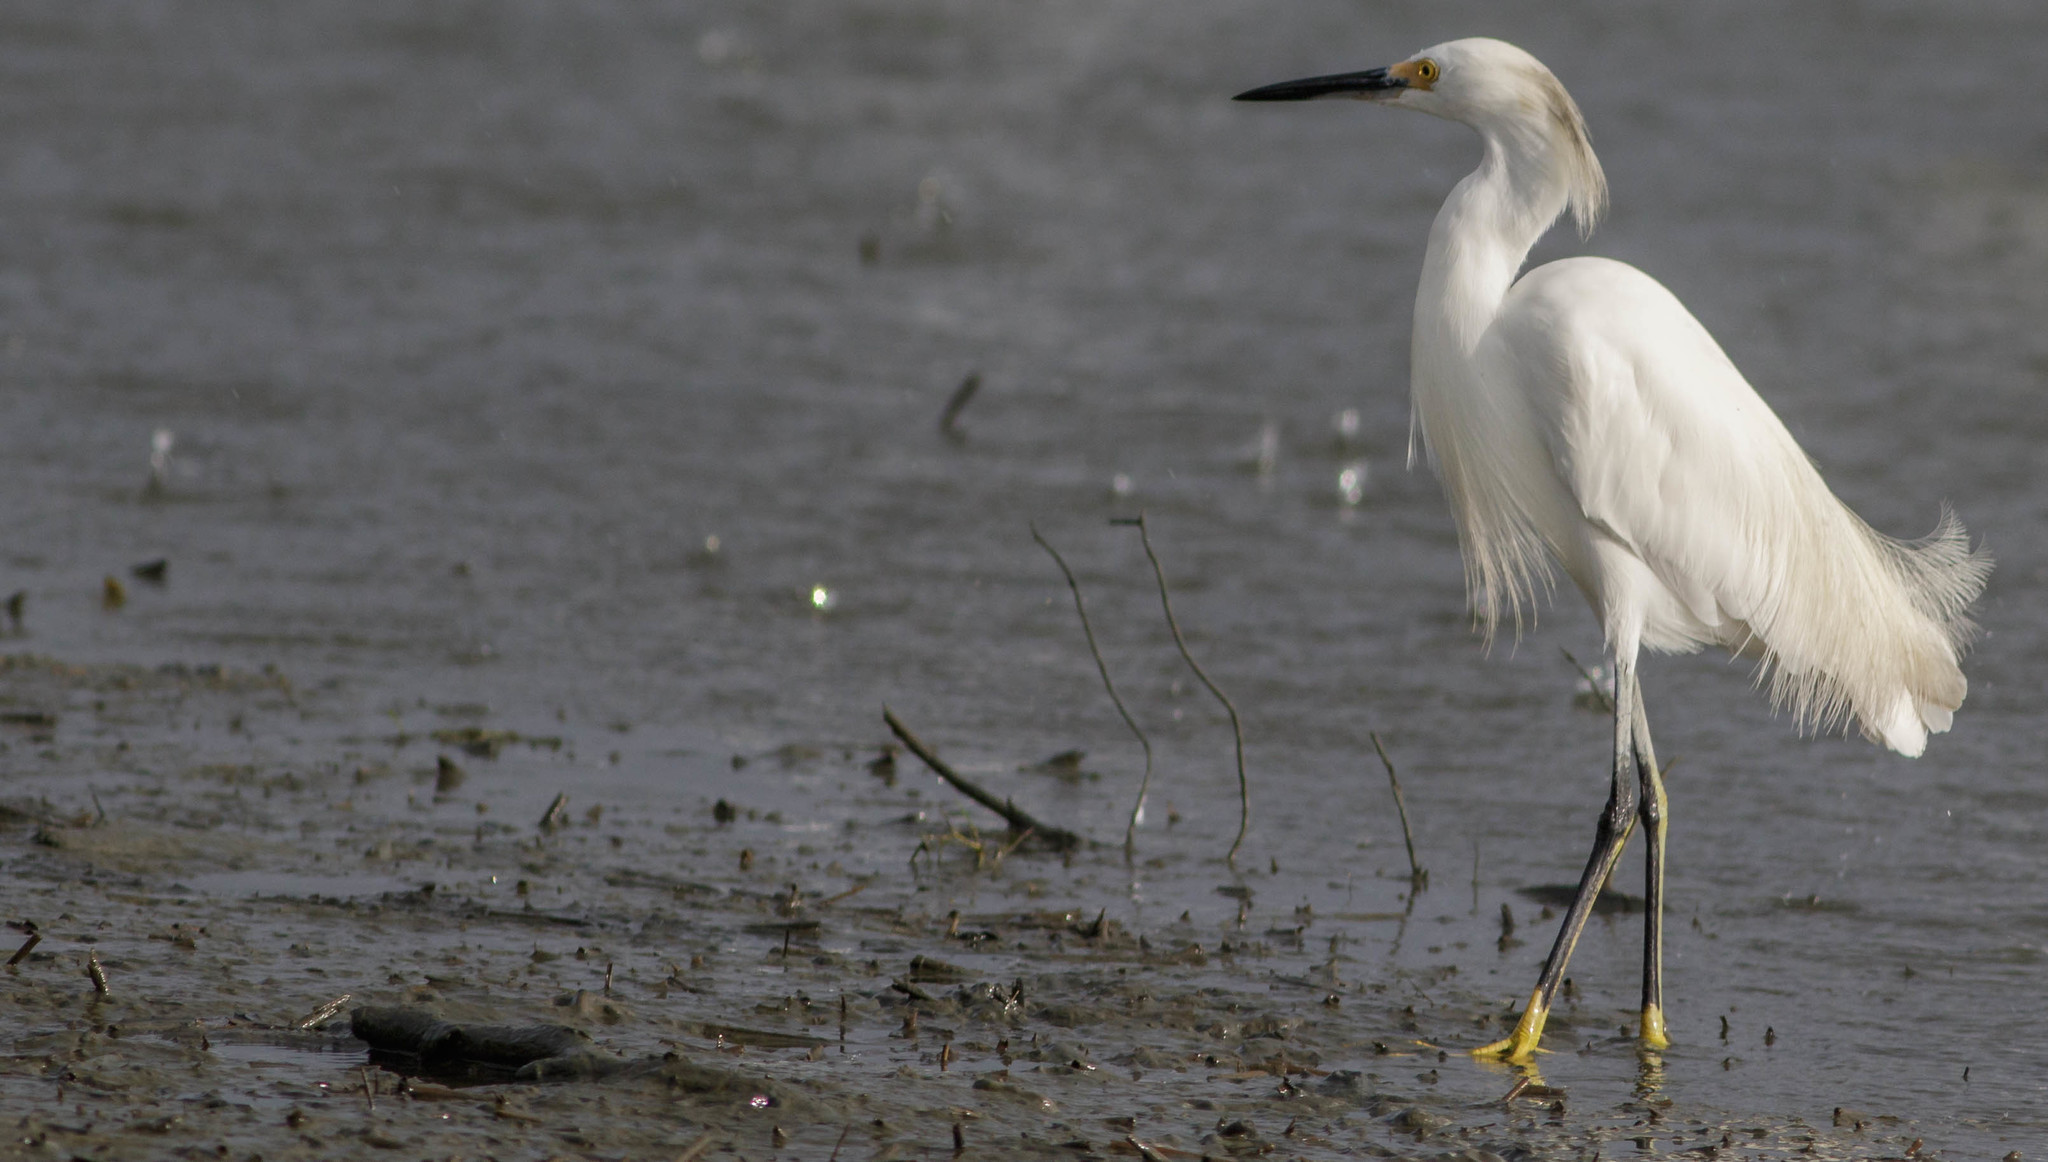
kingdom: Animalia
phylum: Chordata
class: Aves
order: Pelecaniformes
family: Ardeidae
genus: Egretta
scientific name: Egretta thula
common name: Snowy egret
